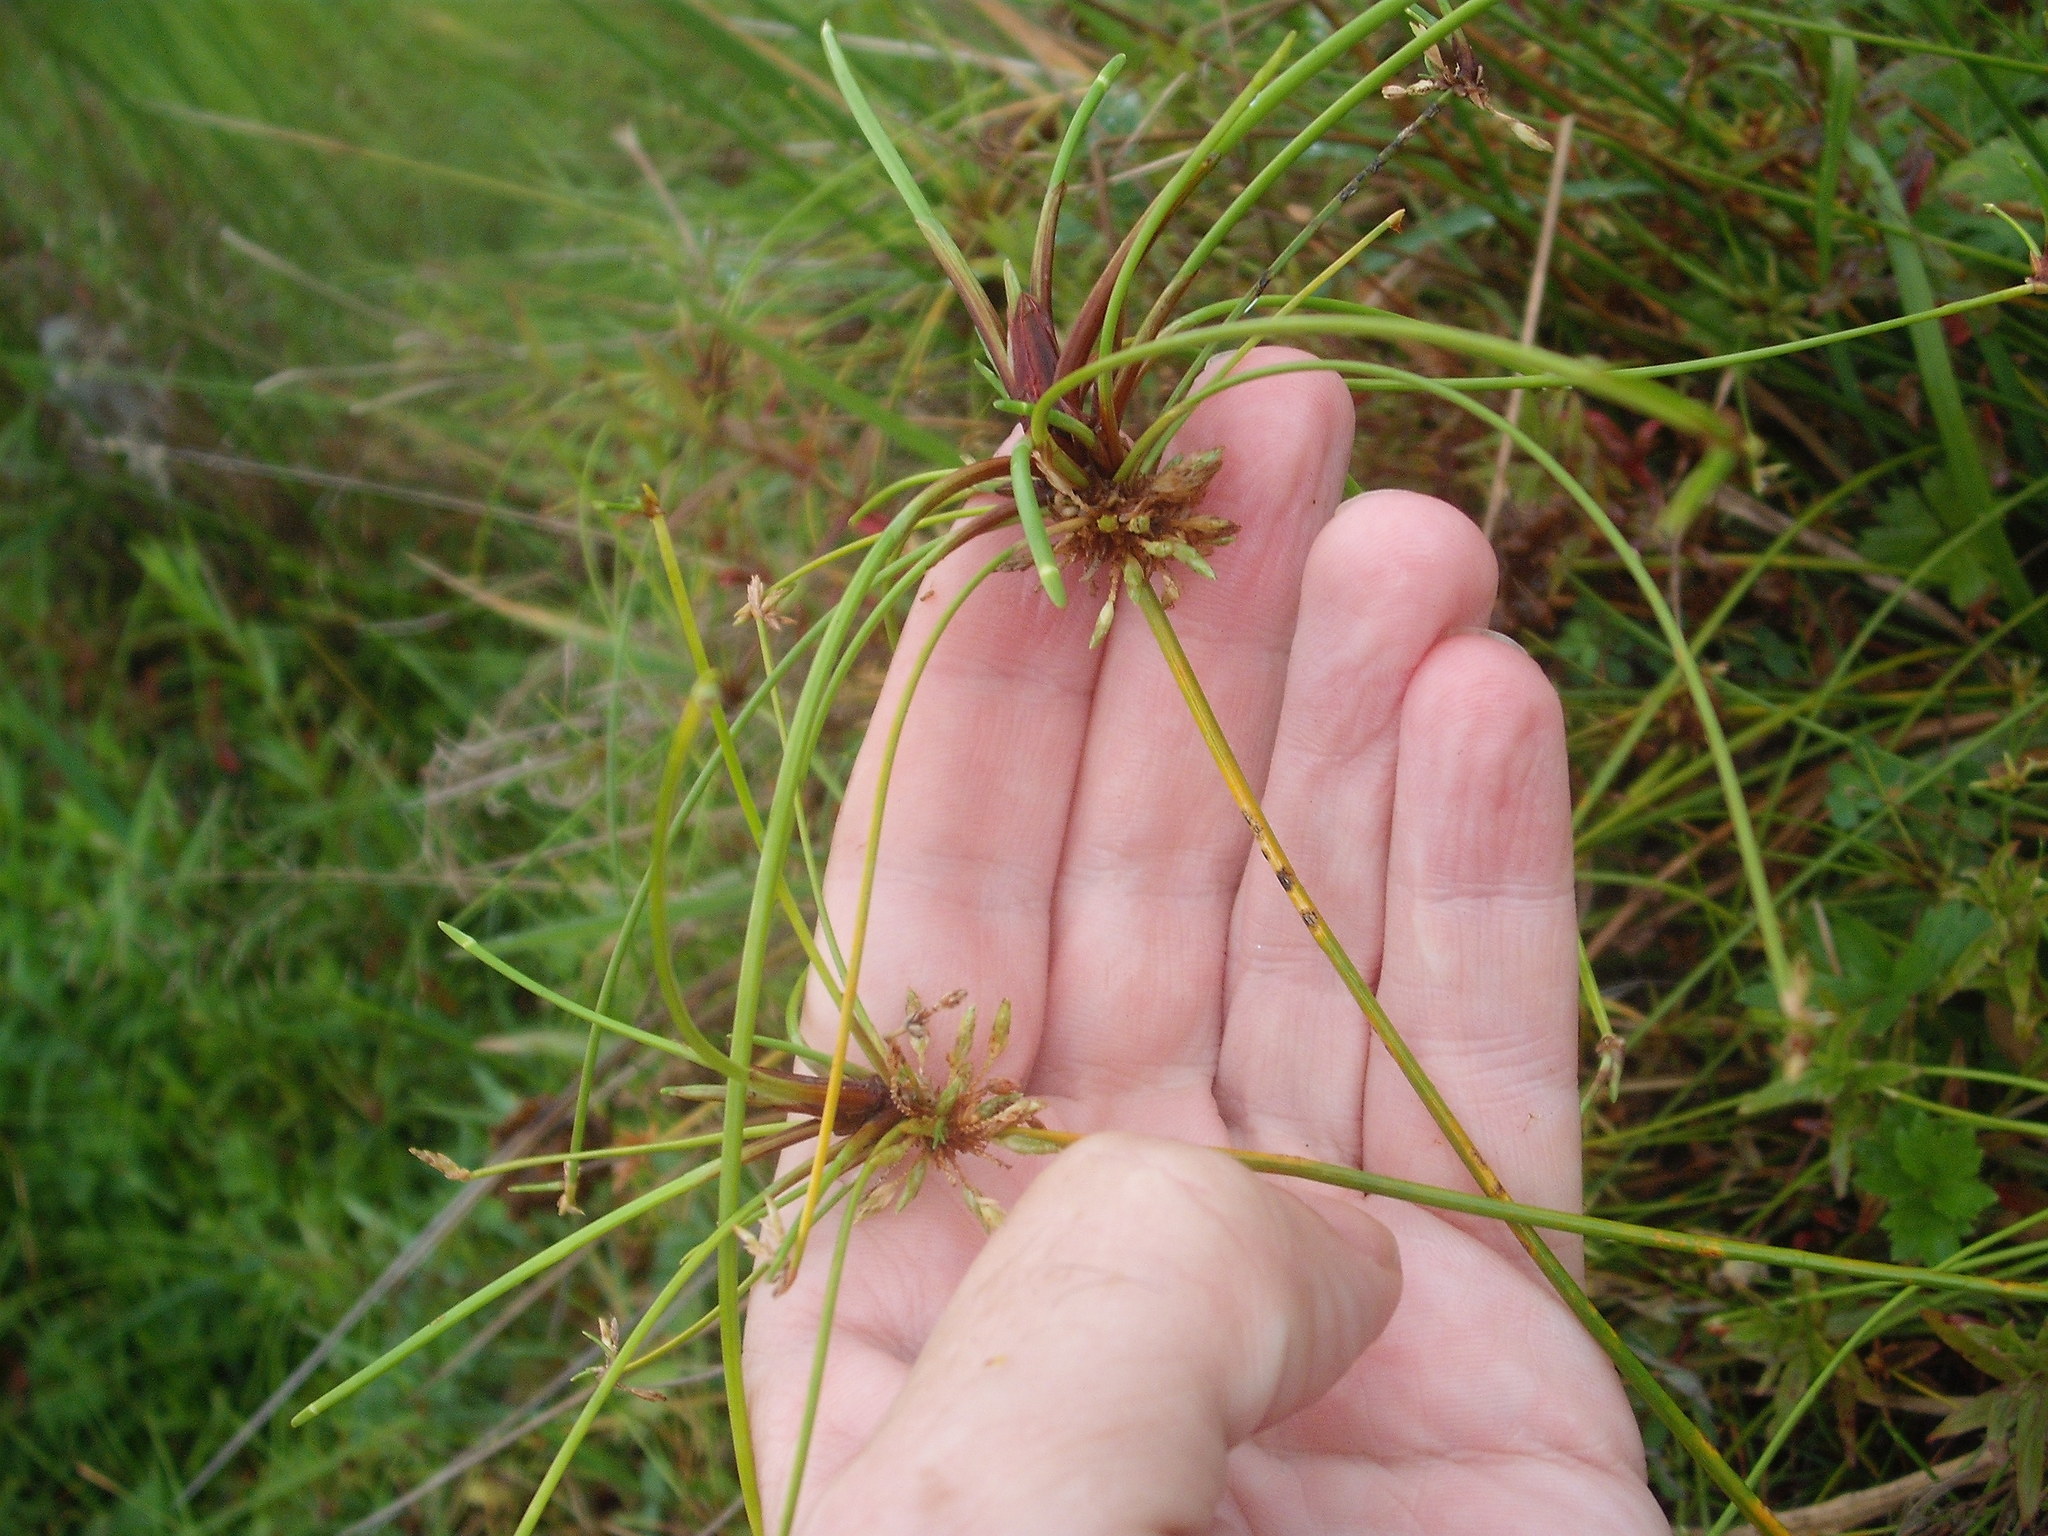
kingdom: Plantae
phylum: Tracheophyta
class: Liliopsida
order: Poales
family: Cyperaceae
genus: Isolepis
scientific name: Isolepis prolifera
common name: Proliferating bulrush
